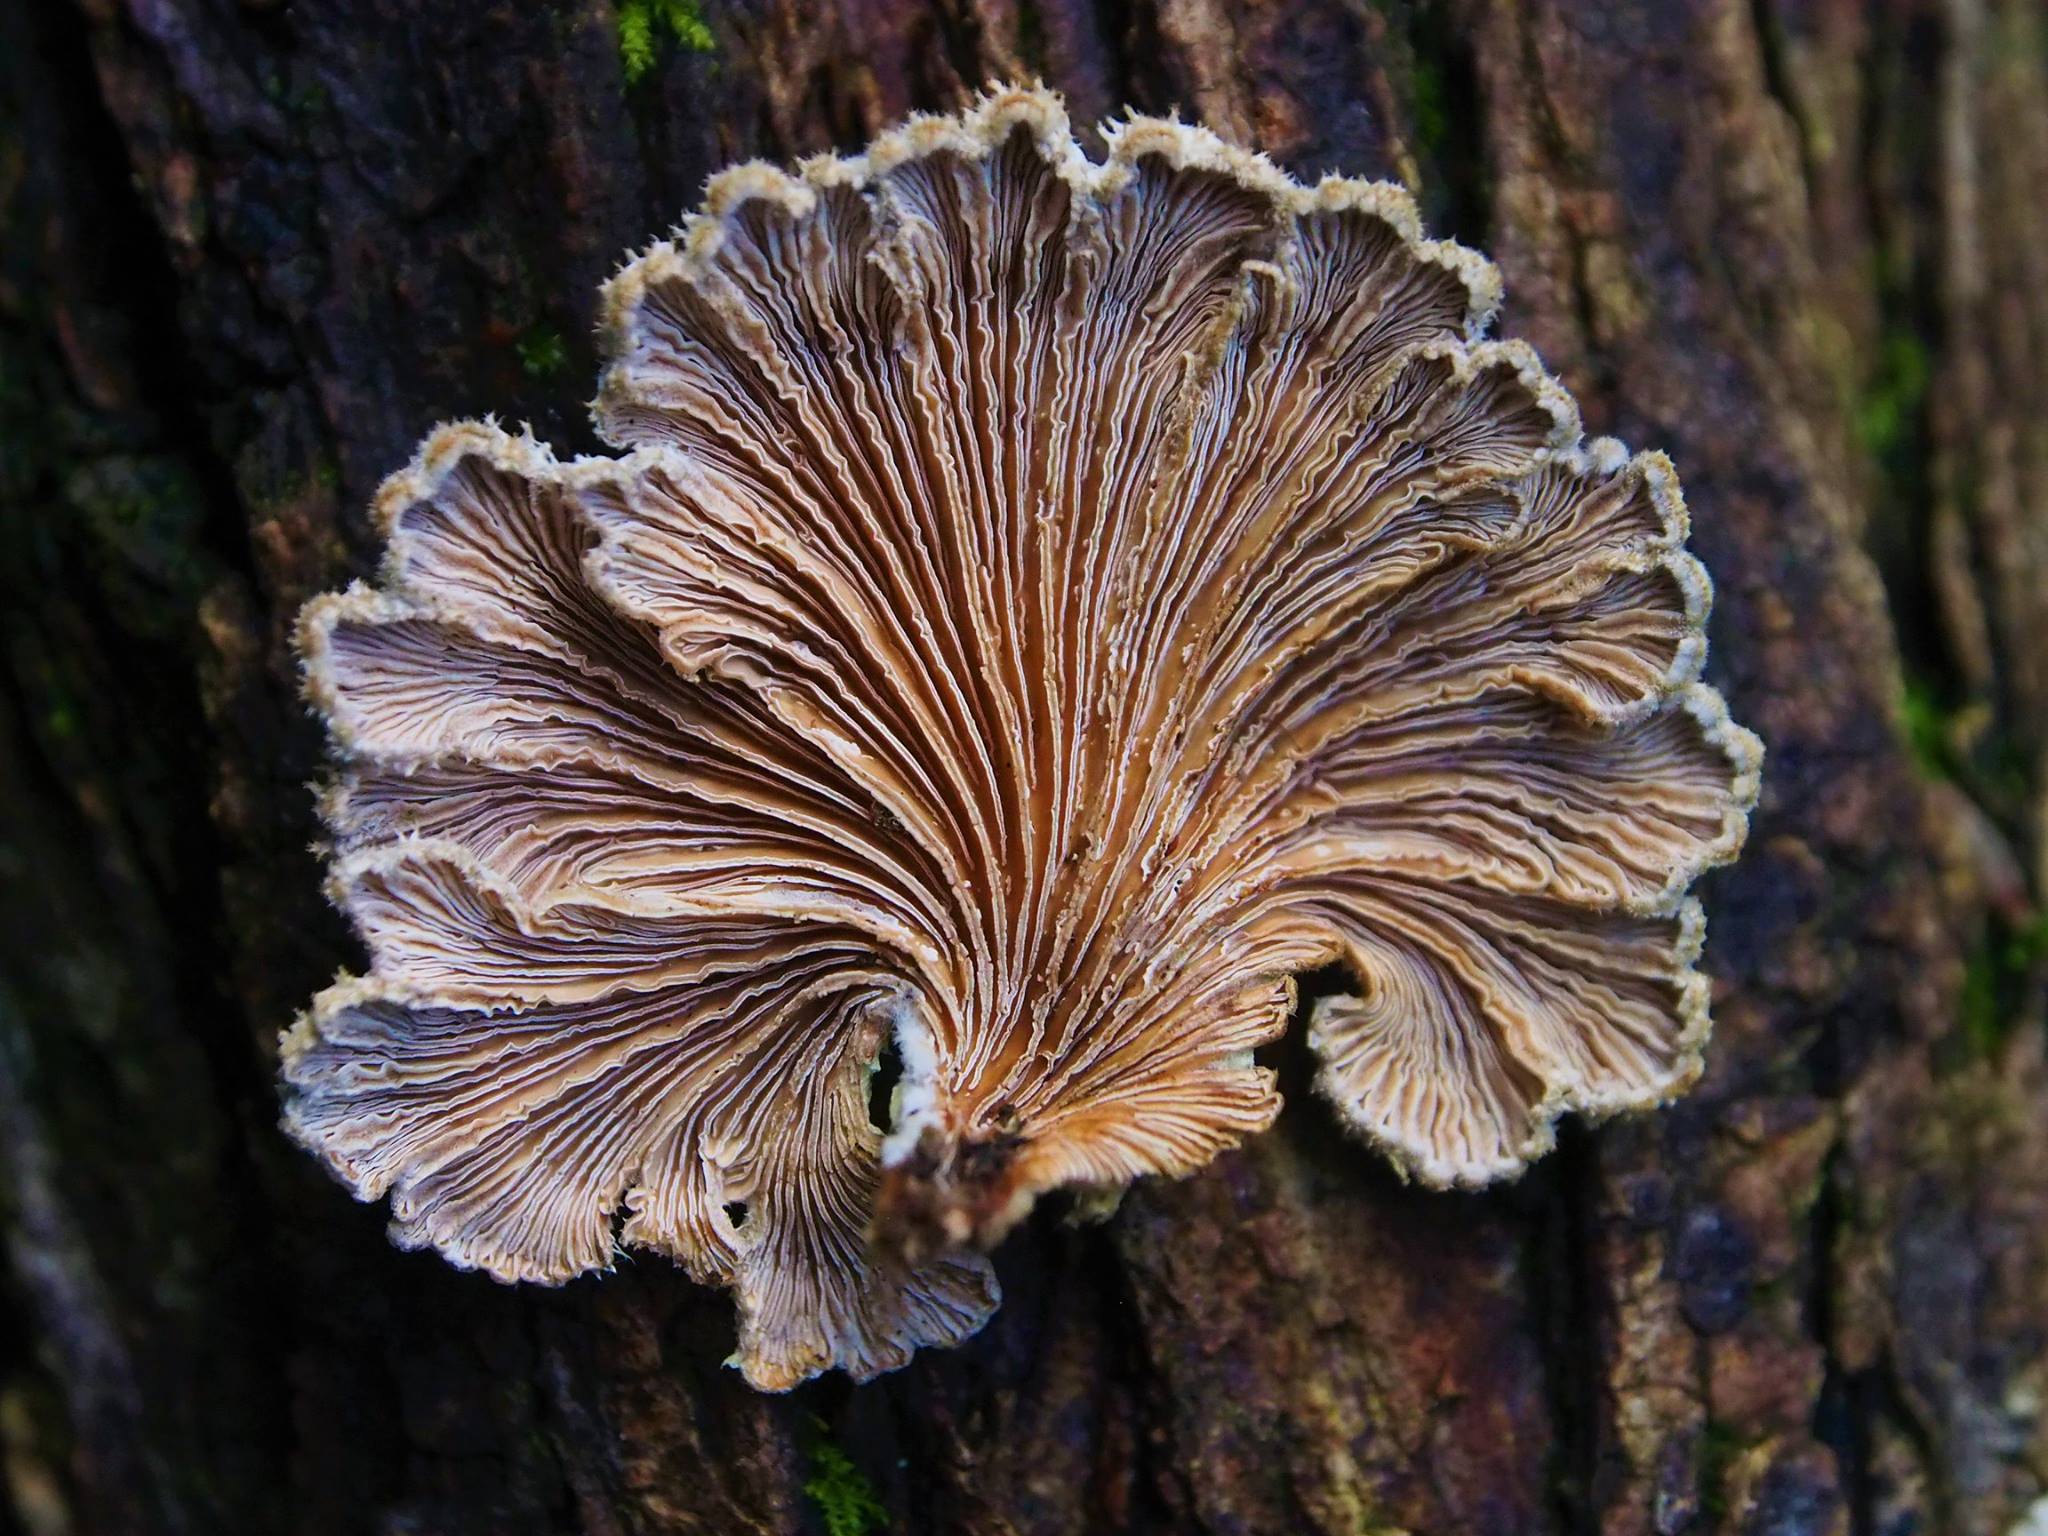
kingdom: Fungi
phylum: Basidiomycota
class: Agaricomycetes
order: Agaricales
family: Schizophyllaceae
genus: Schizophyllum
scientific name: Schizophyllum commune
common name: Common porecrust
